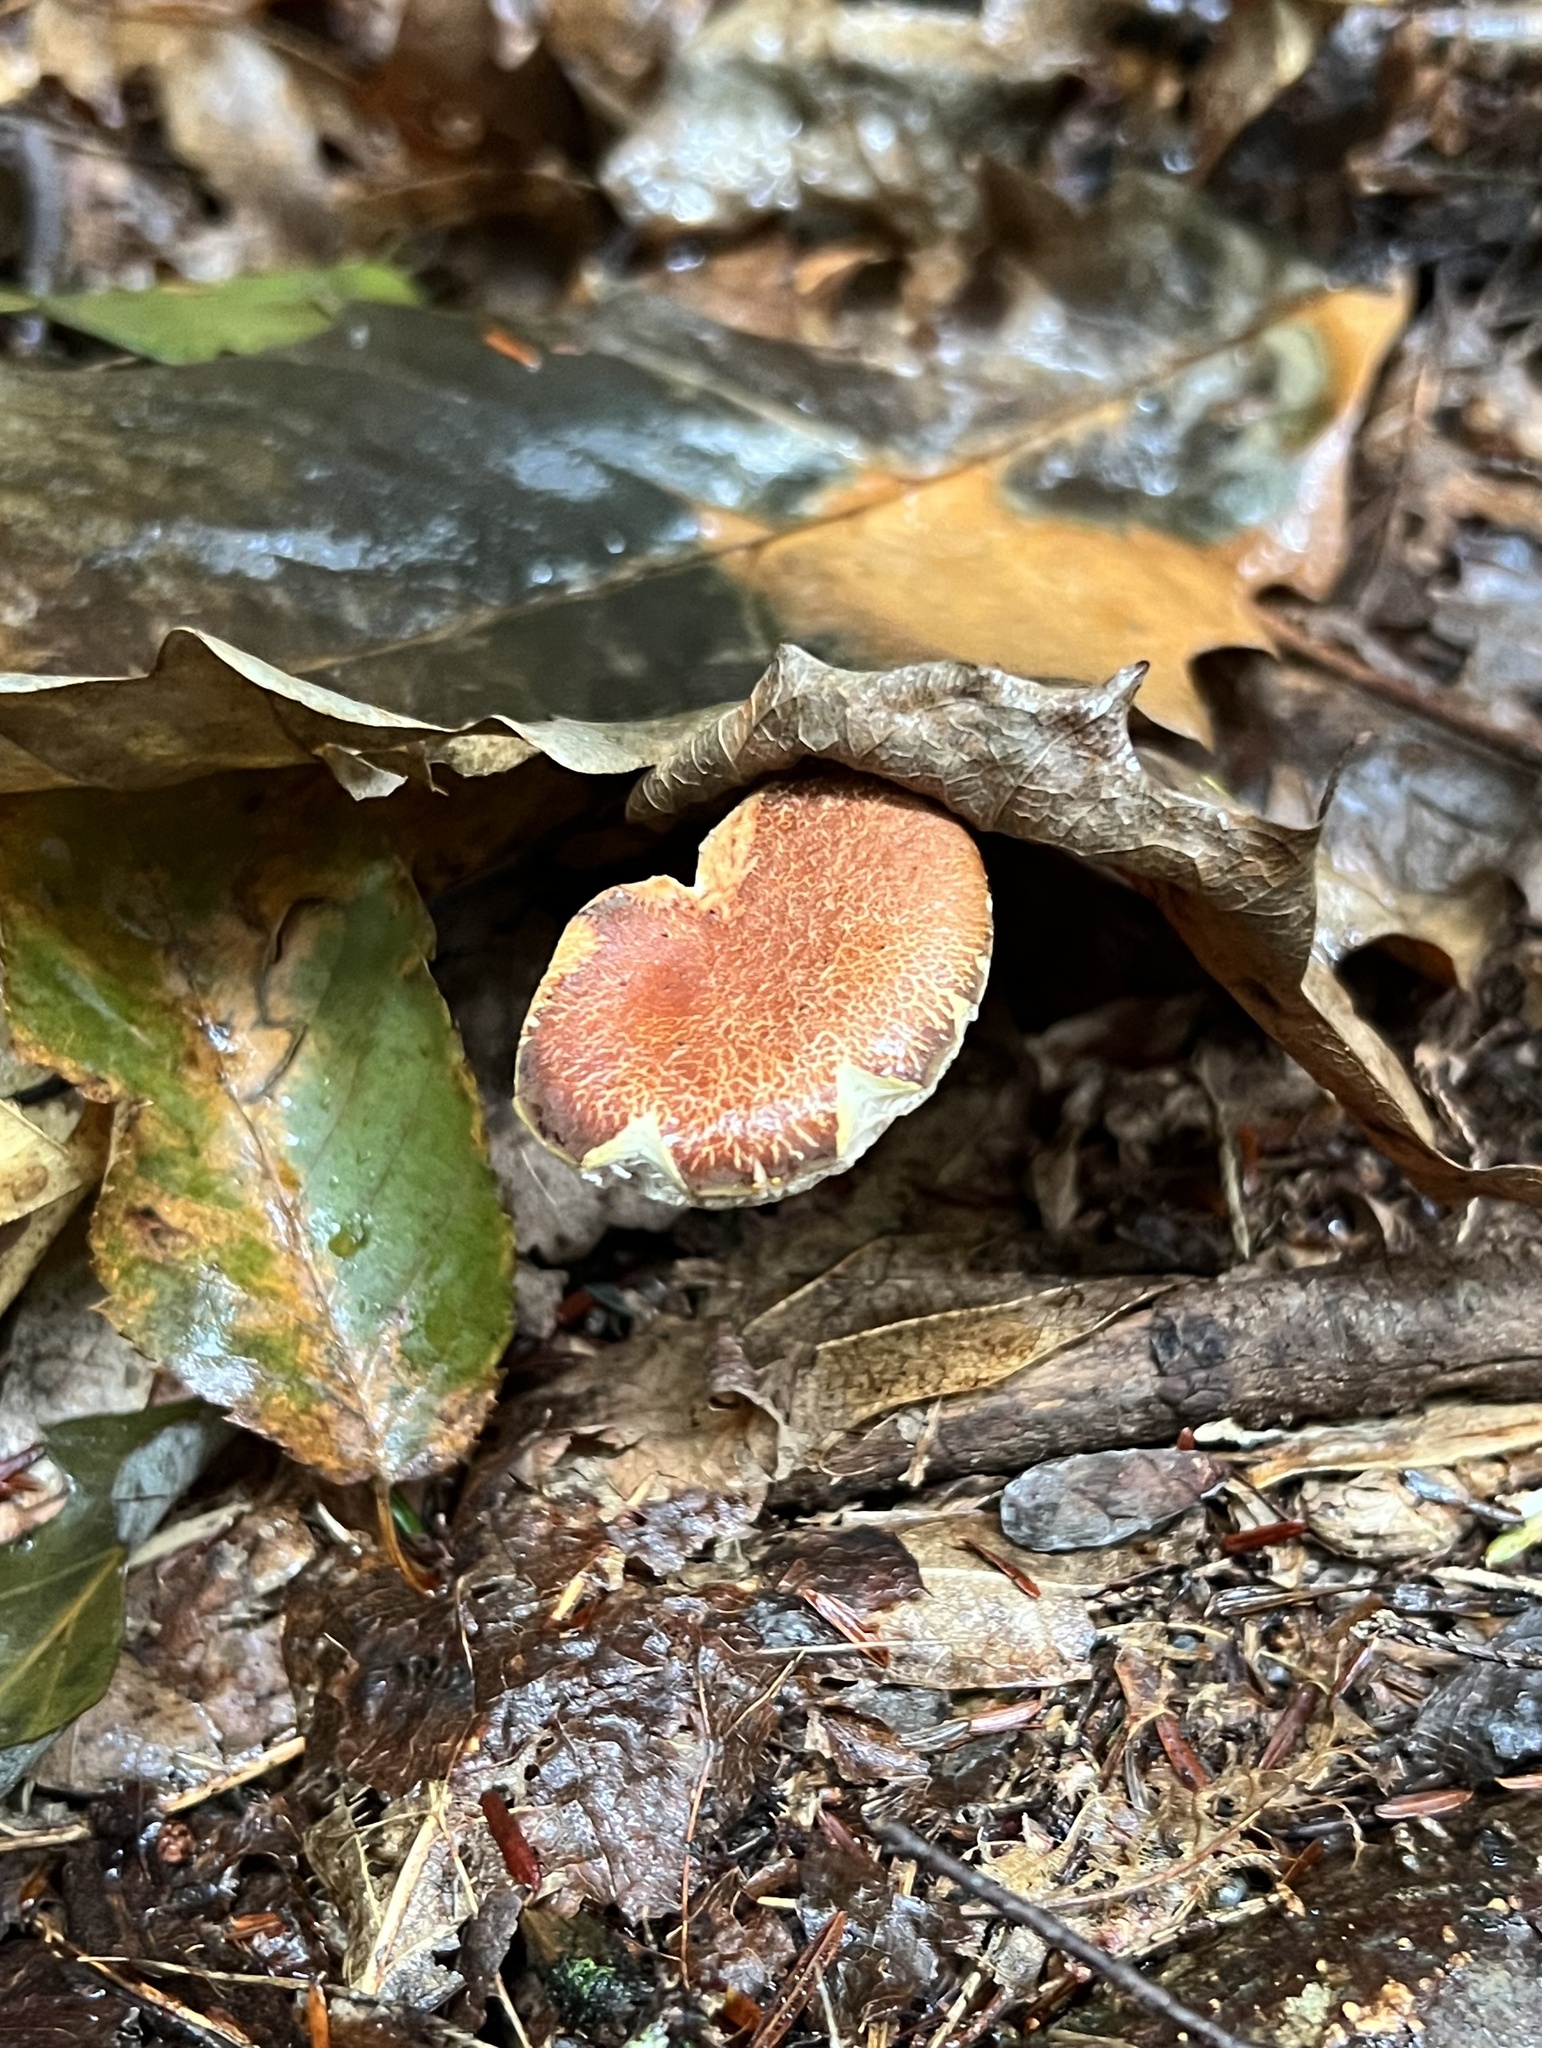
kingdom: Fungi
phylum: Basidiomycota
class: Agaricomycetes
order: Boletales
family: Boletaceae
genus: Austroboletus
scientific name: Austroboletus gracilis
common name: Graceful bolete
